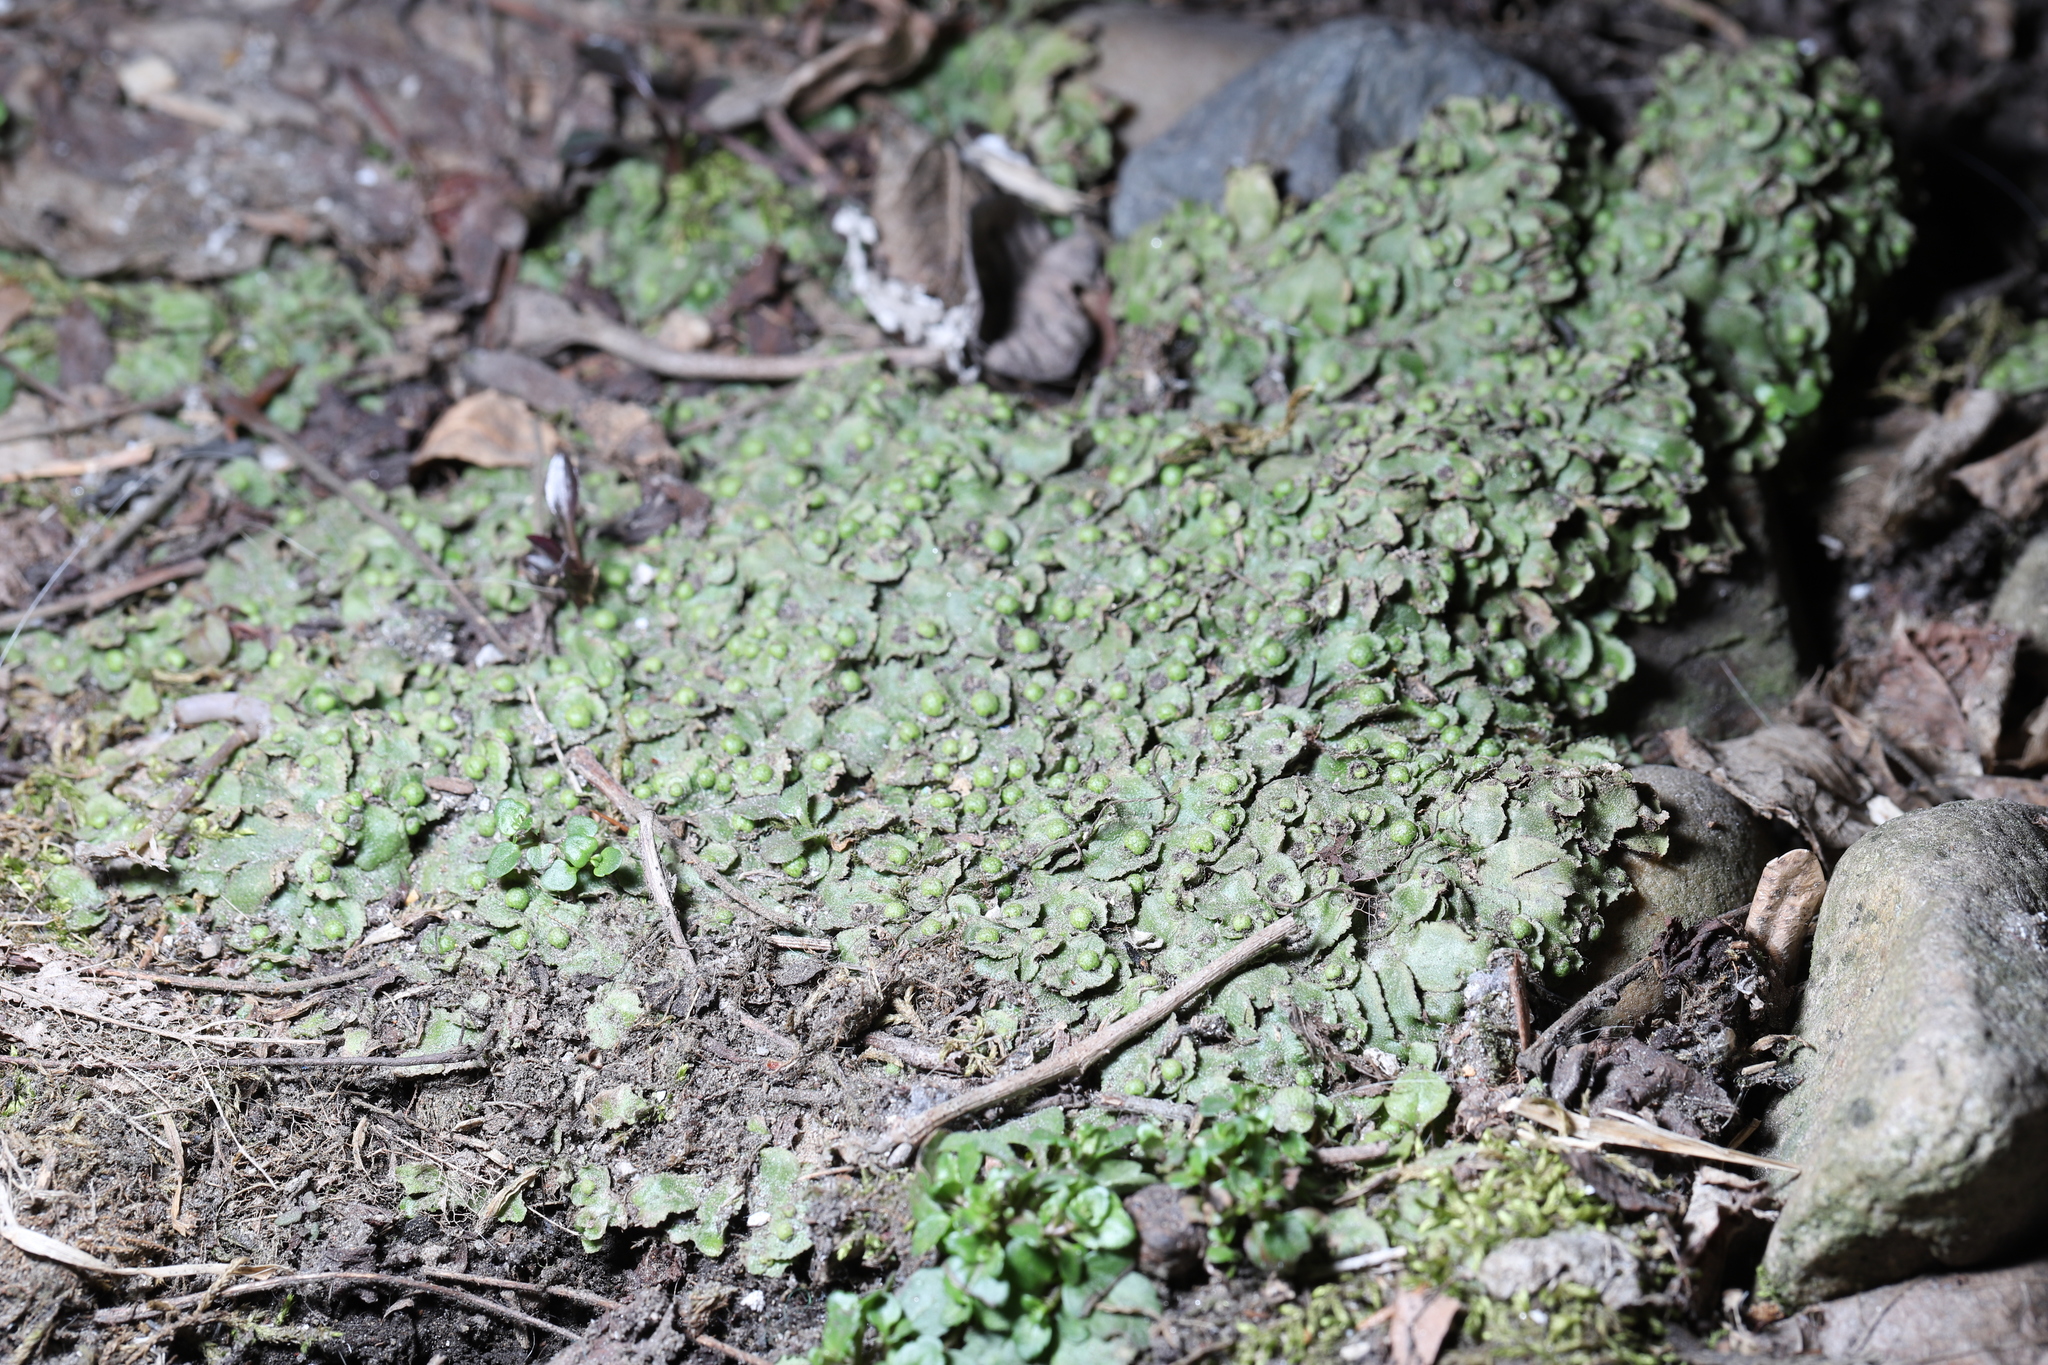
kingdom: Plantae
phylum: Marchantiophyta
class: Marchantiopsida
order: Marchantiales
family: Aytoniaceae
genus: Reboulia
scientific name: Reboulia hemisphaerica
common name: Purple-margined liverwort
